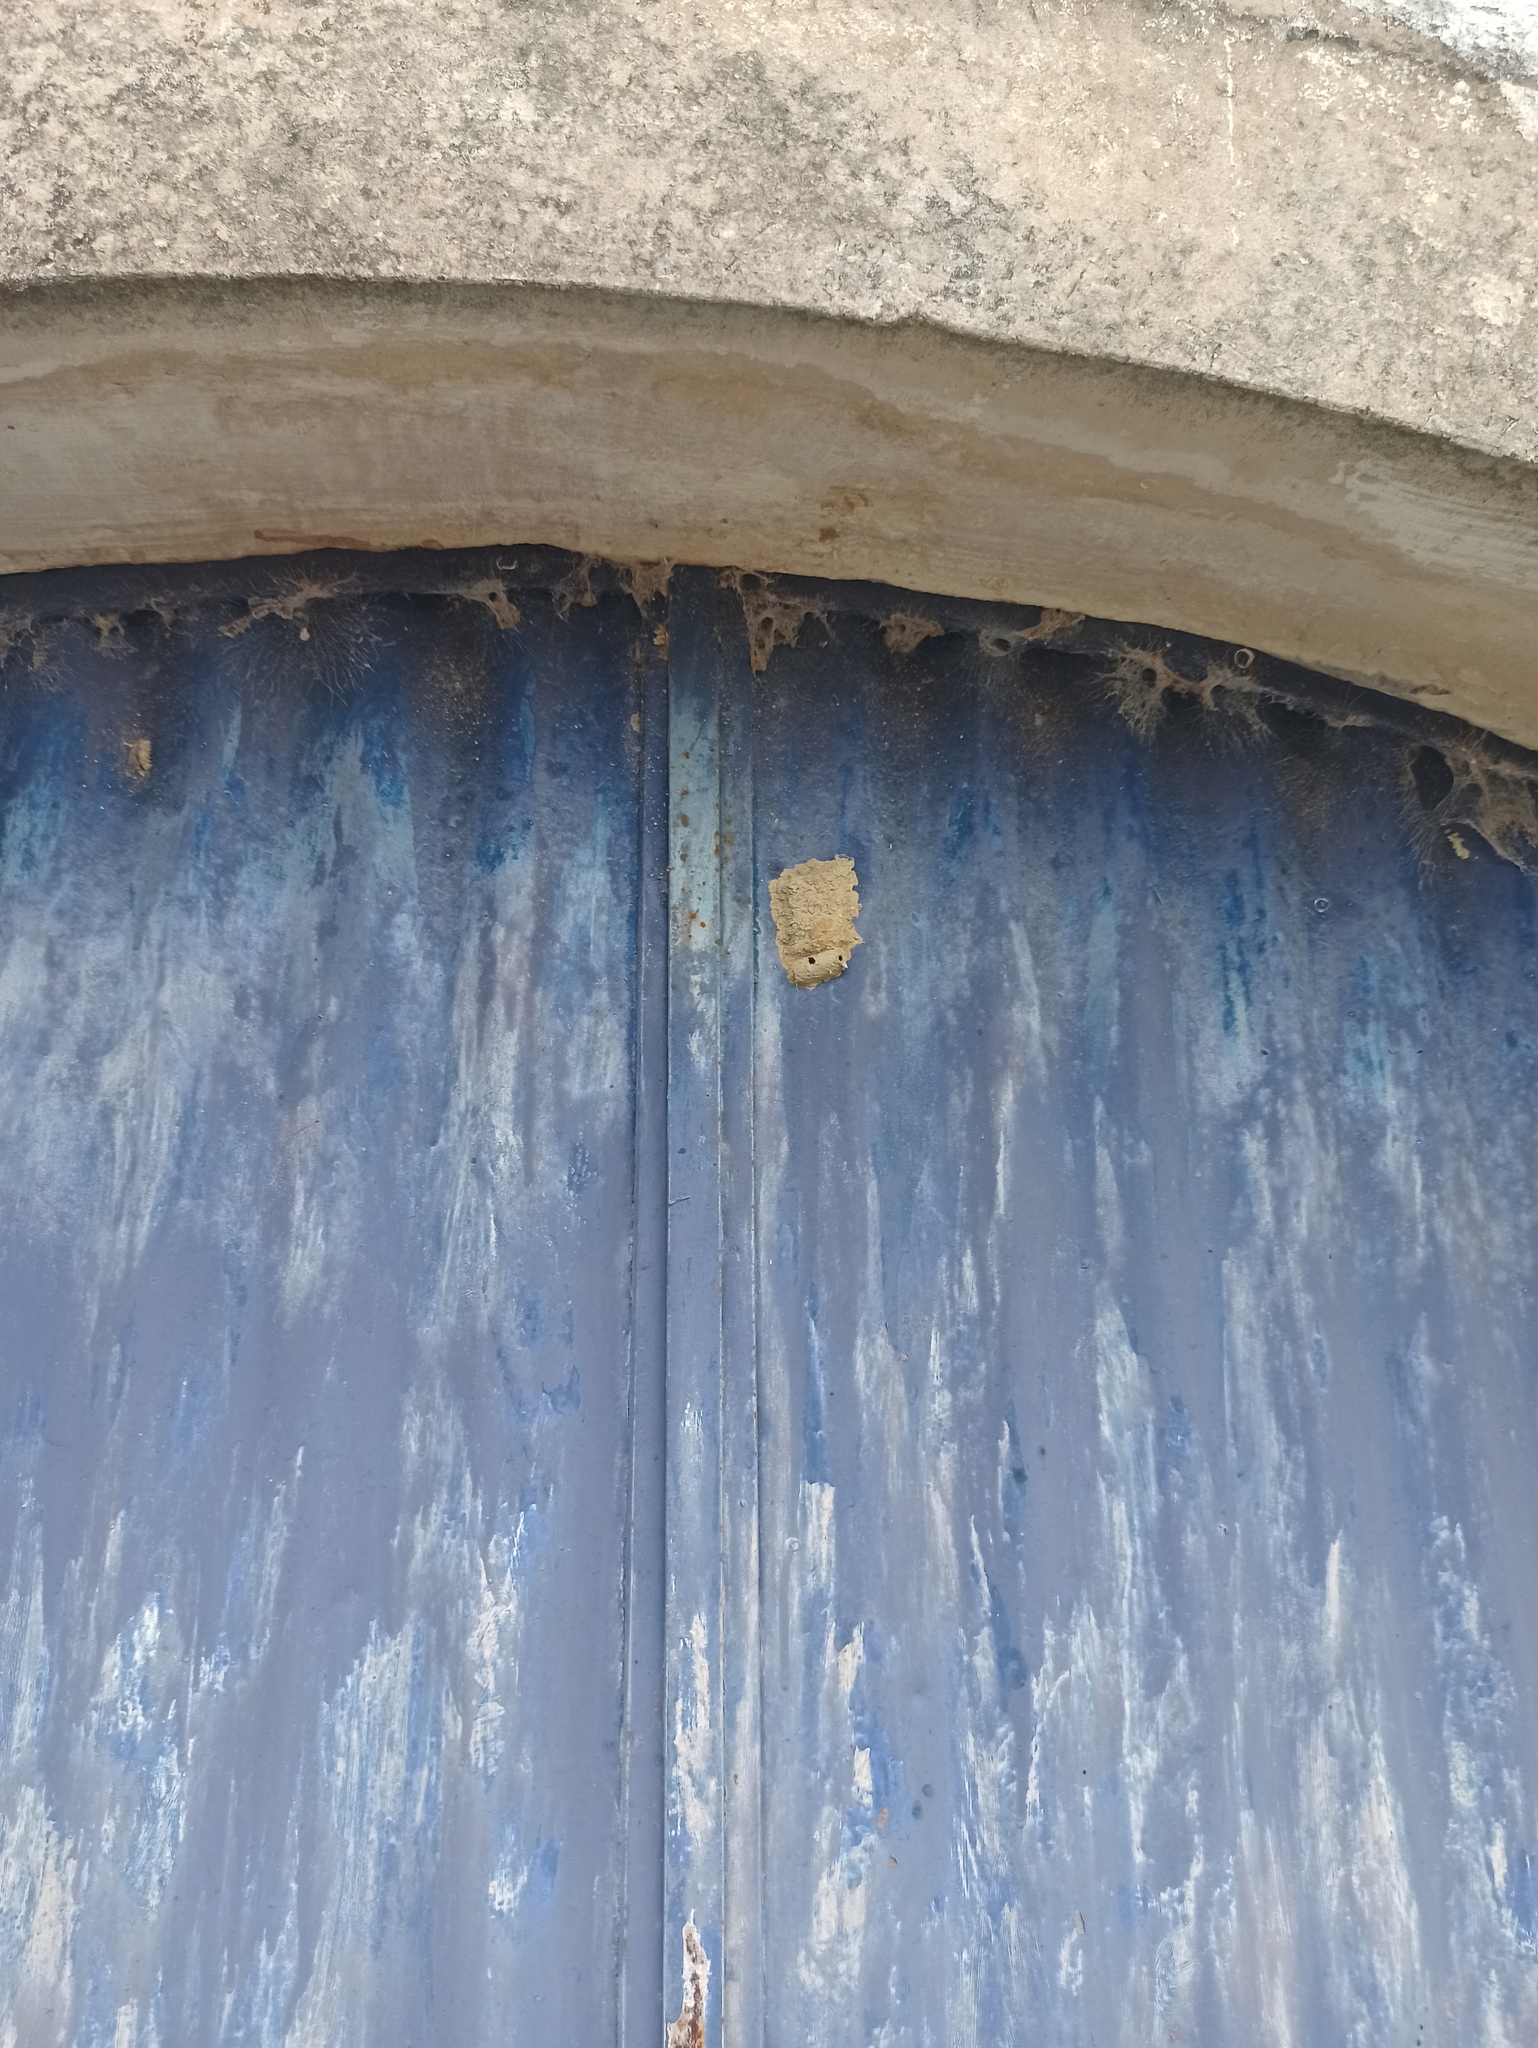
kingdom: Animalia
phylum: Arthropoda
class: Insecta
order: Hymenoptera
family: Sphecidae
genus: Sceliphron
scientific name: Sceliphron
